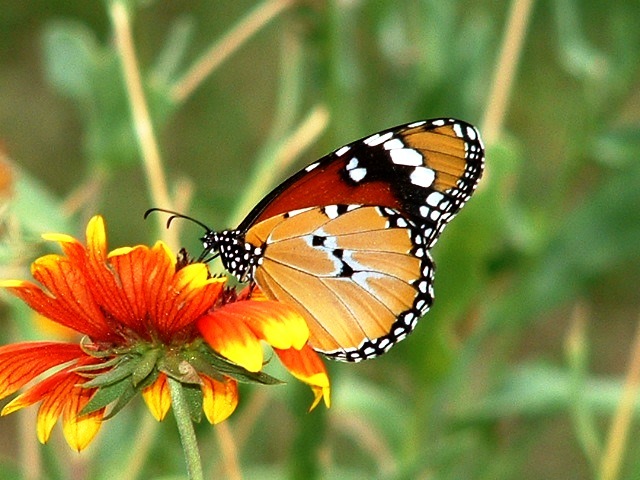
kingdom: Animalia
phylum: Arthropoda
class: Insecta
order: Lepidoptera
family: Nymphalidae
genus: Danaus
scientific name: Danaus chrysippus
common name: Plain tiger
